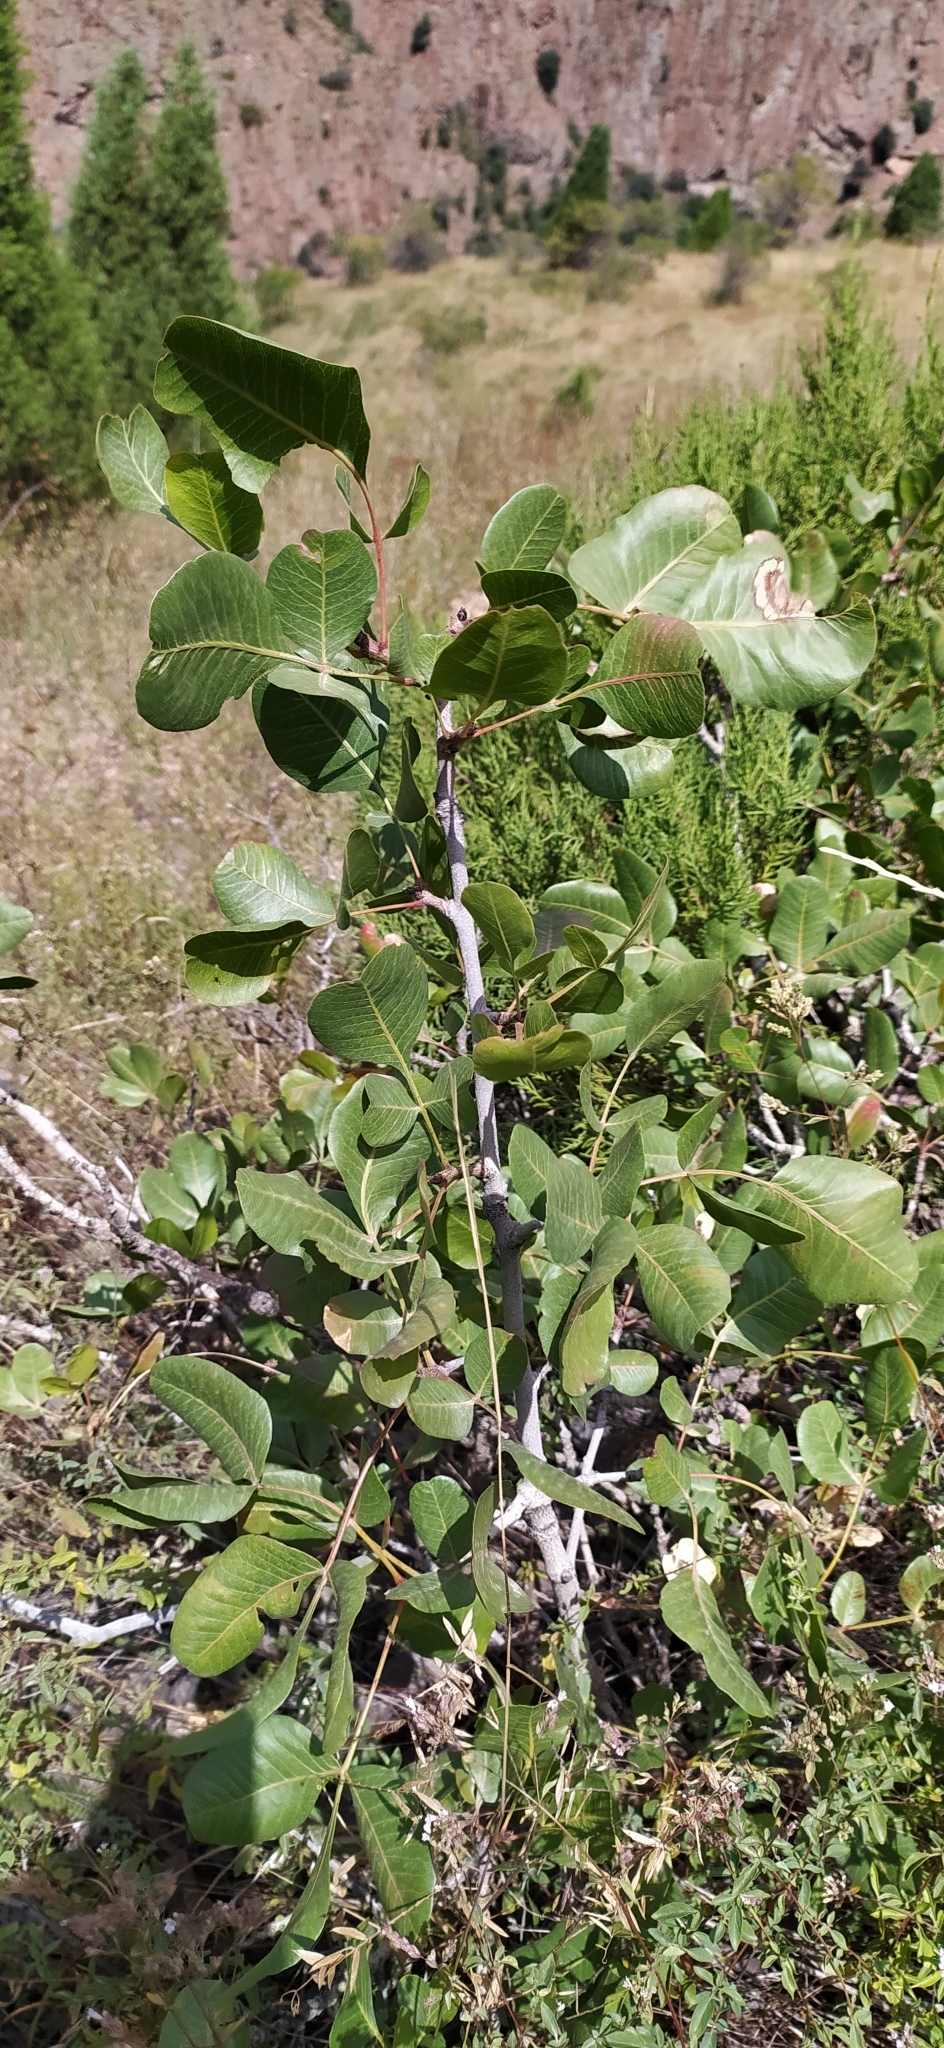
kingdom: Plantae
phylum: Tracheophyta
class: Magnoliopsida
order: Sapindales
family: Anacardiaceae
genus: Pistacia
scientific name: Pistacia vera
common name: Pistachio
